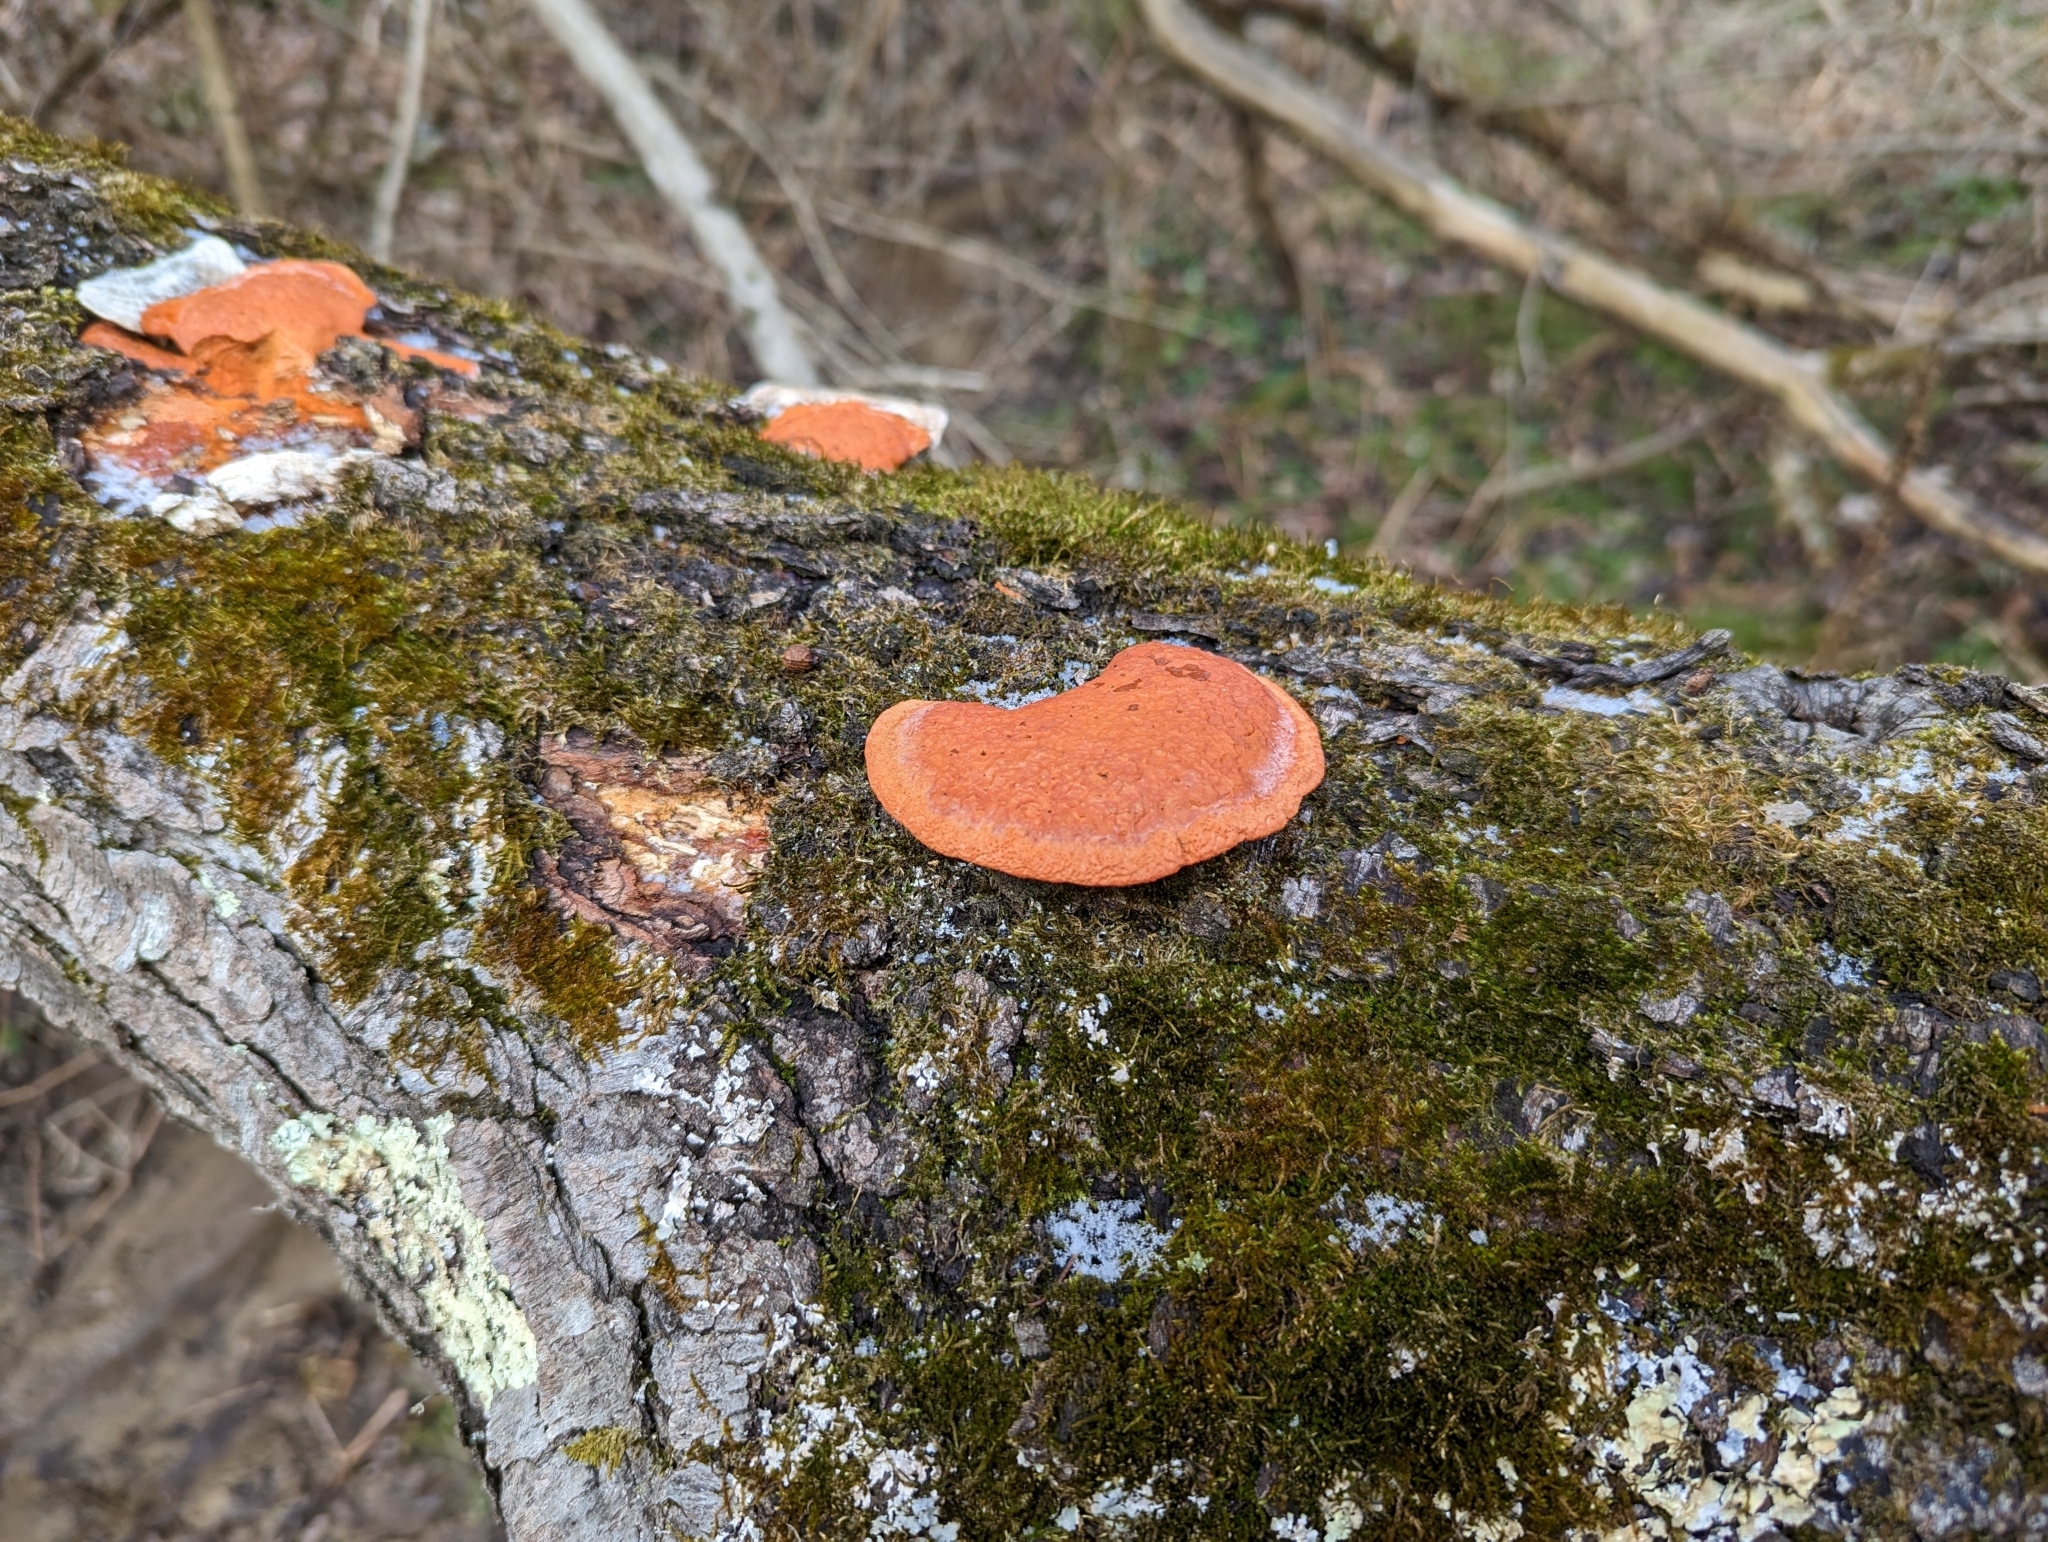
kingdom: Fungi
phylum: Basidiomycota
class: Agaricomycetes
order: Polyporales
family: Polyporaceae
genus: Trametes
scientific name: Trametes cinnabarina
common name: Northern cinnabar polypore
